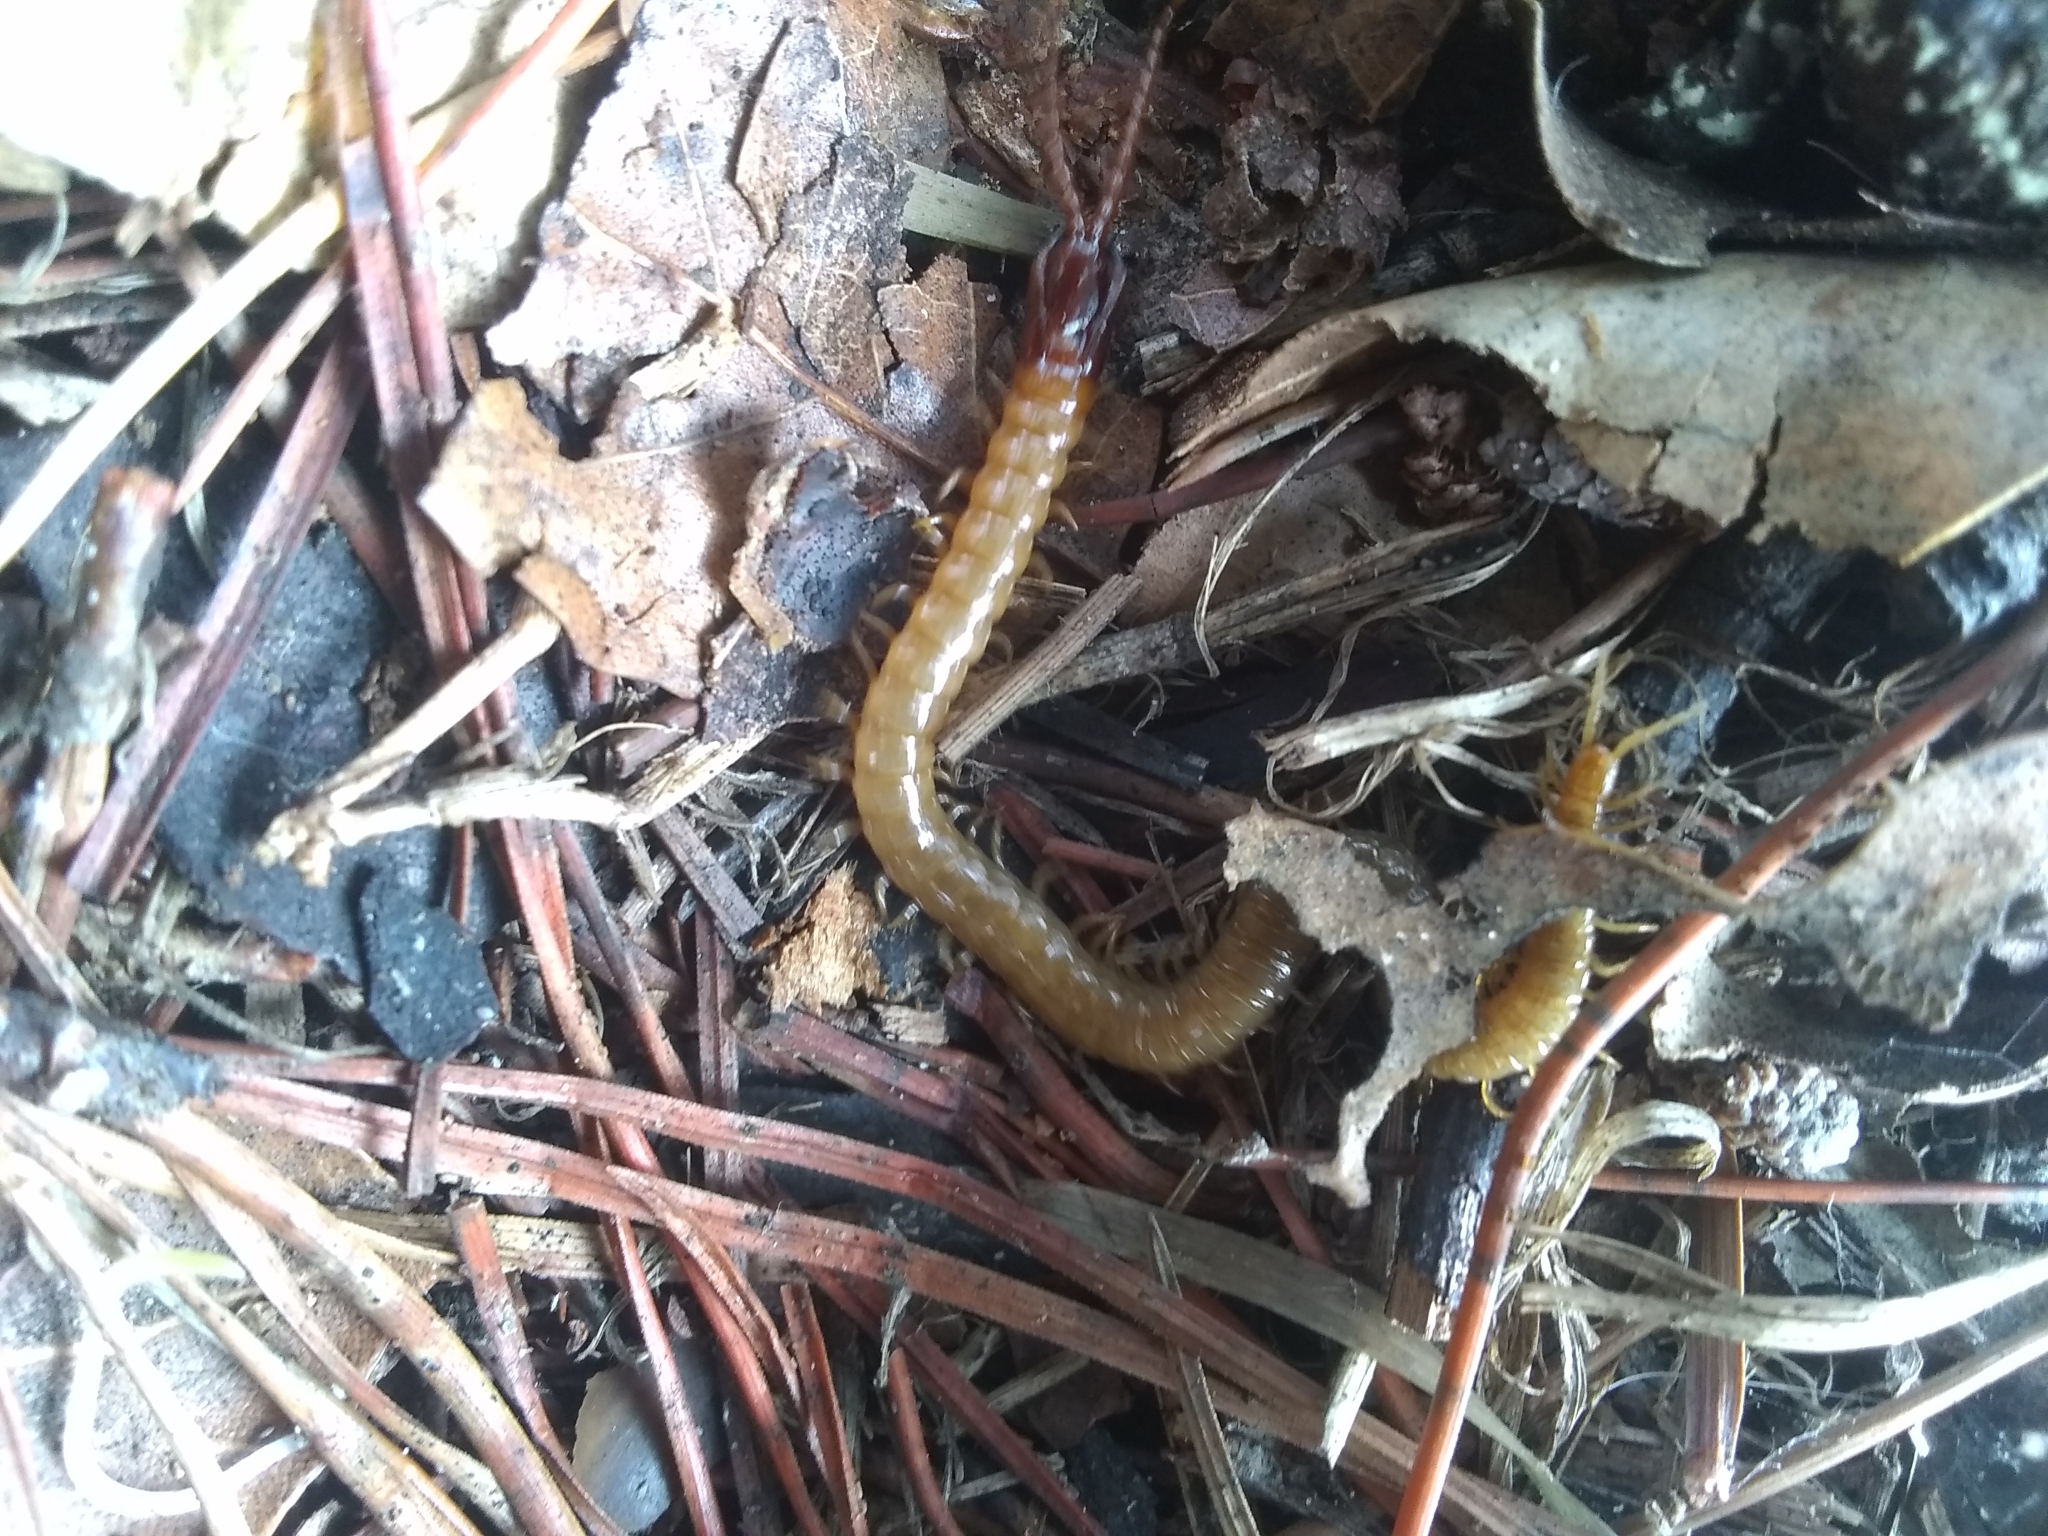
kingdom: Animalia
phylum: Arthropoda
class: Chilopoda
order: Geophilomorpha
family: Mecistocephalidae
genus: Dicellophilus
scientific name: Dicellophilus limatus
